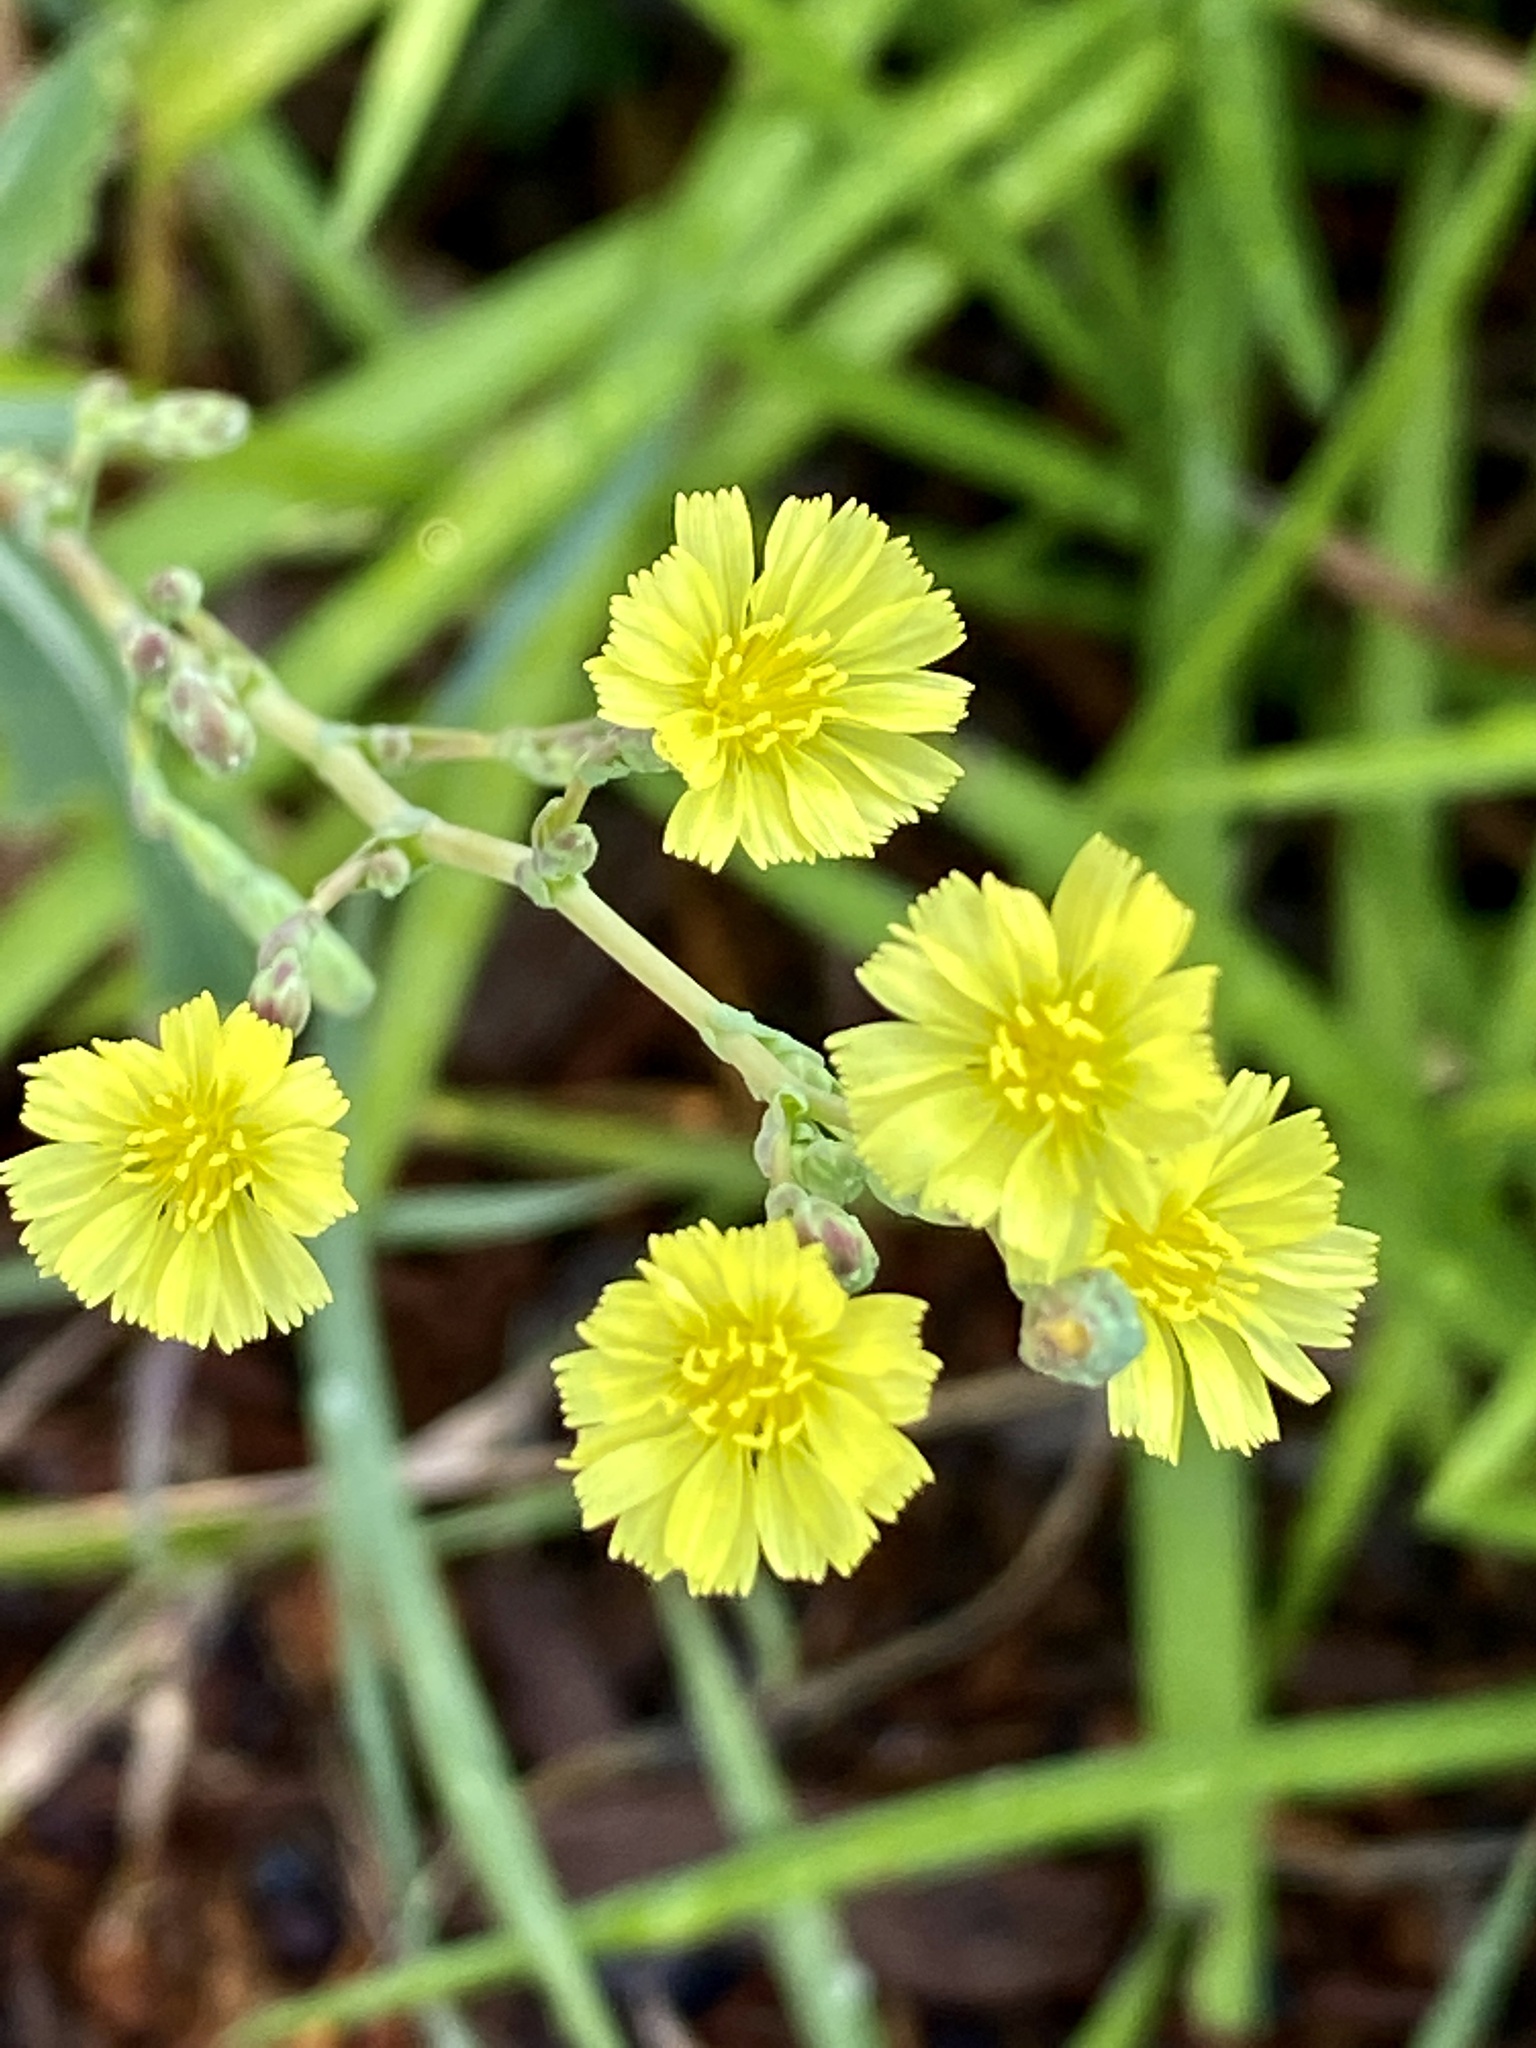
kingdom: Plantae
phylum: Tracheophyta
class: Magnoliopsida
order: Asterales
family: Asteraceae
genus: Lactuca
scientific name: Lactuca serriola
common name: Prickly lettuce
